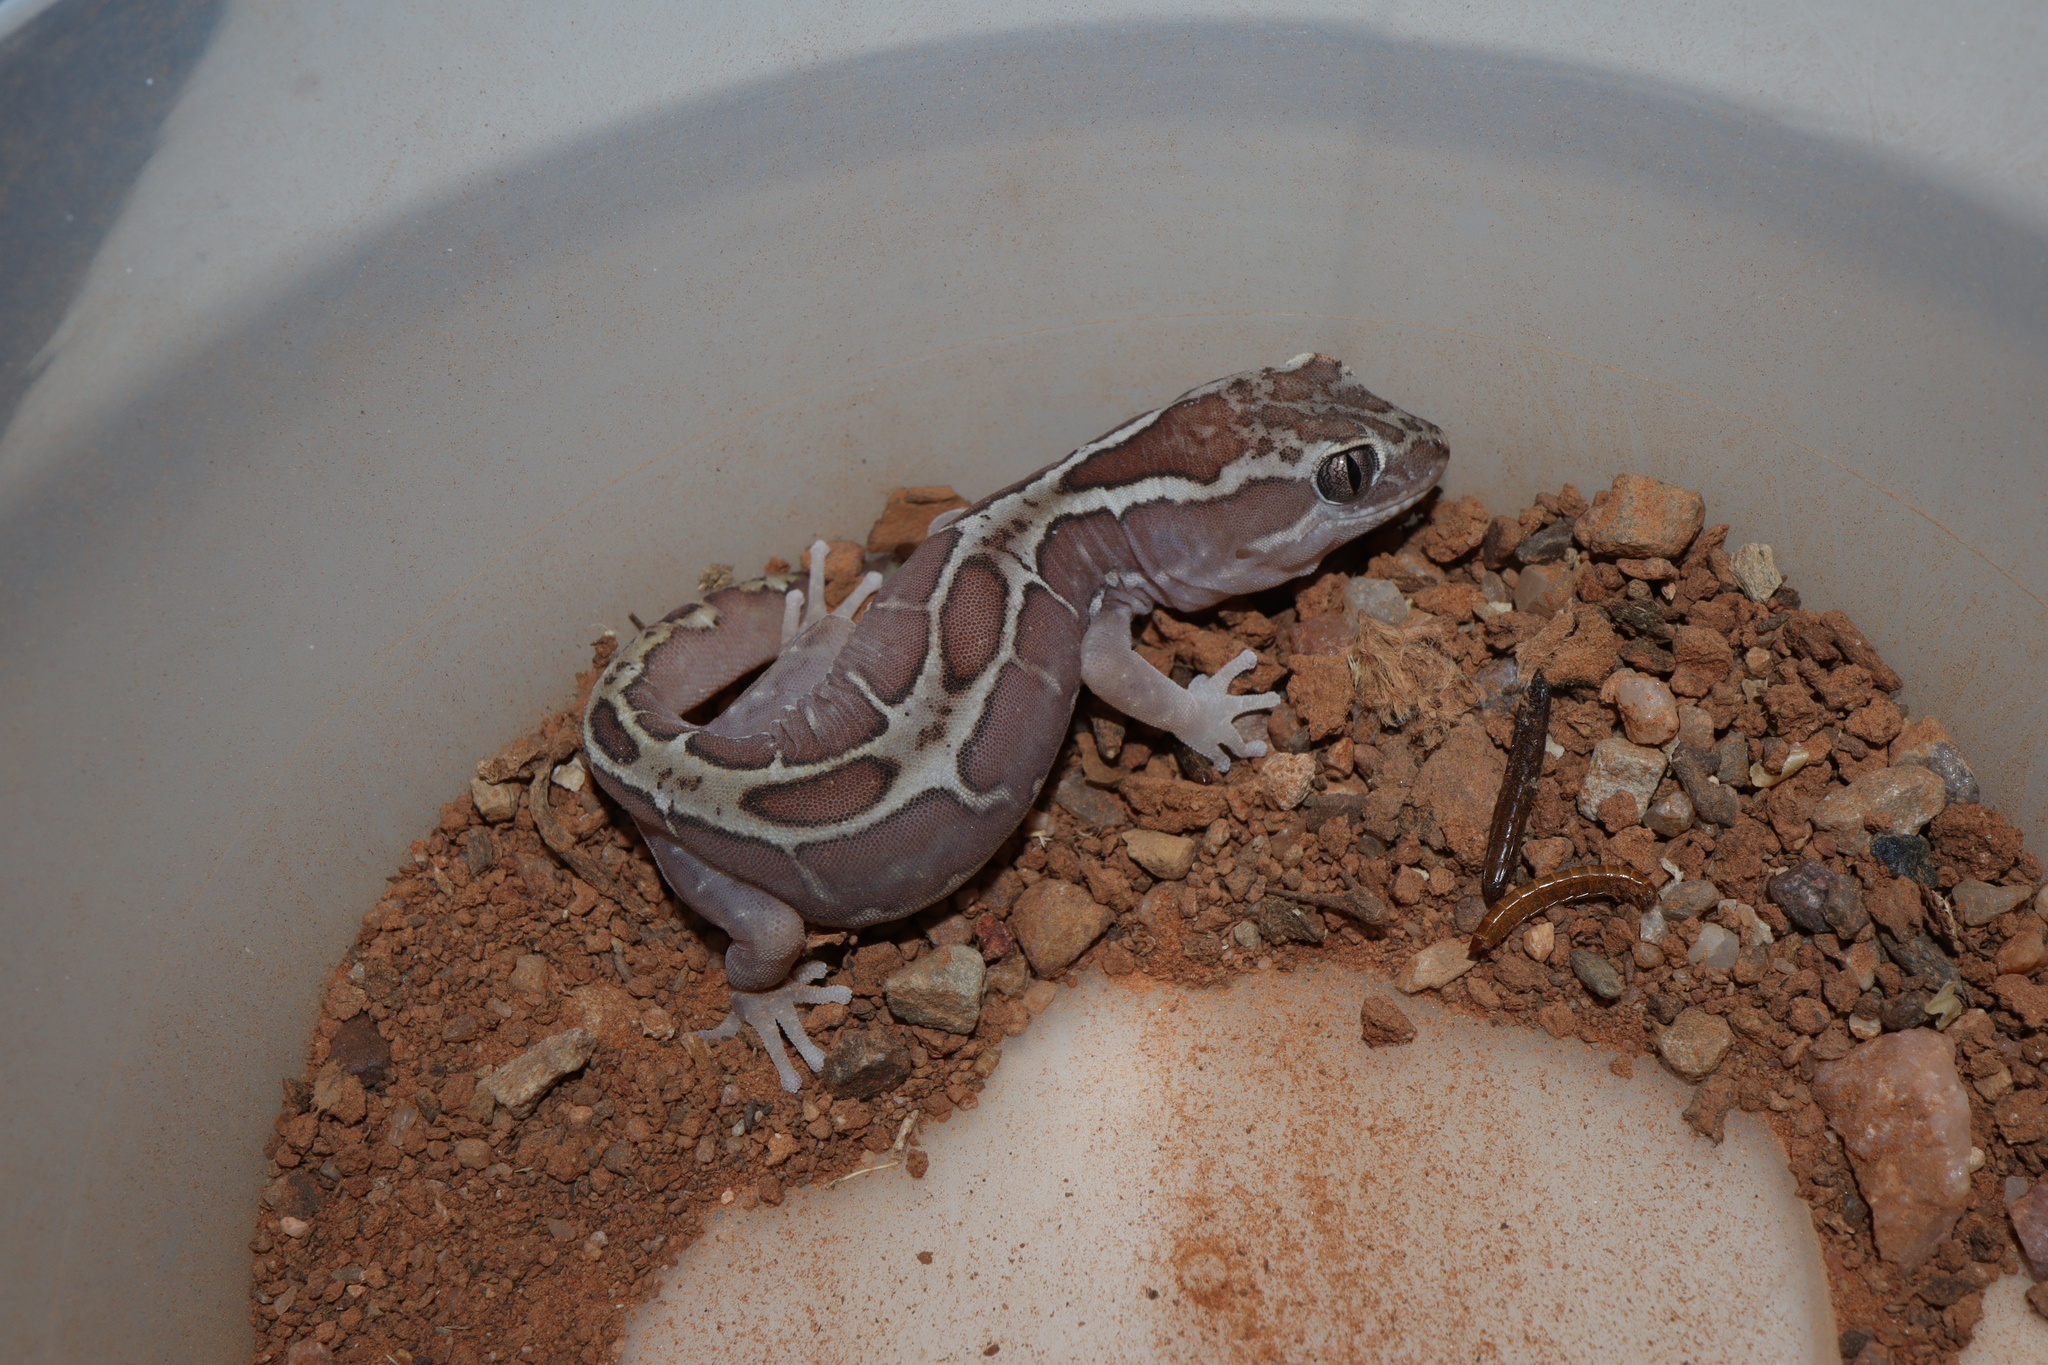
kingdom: Animalia
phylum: Chordata
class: Squamata
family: Diplodactylidae
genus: Lucasium
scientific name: Lucasium steindachneri
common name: Box-patterned gecko
